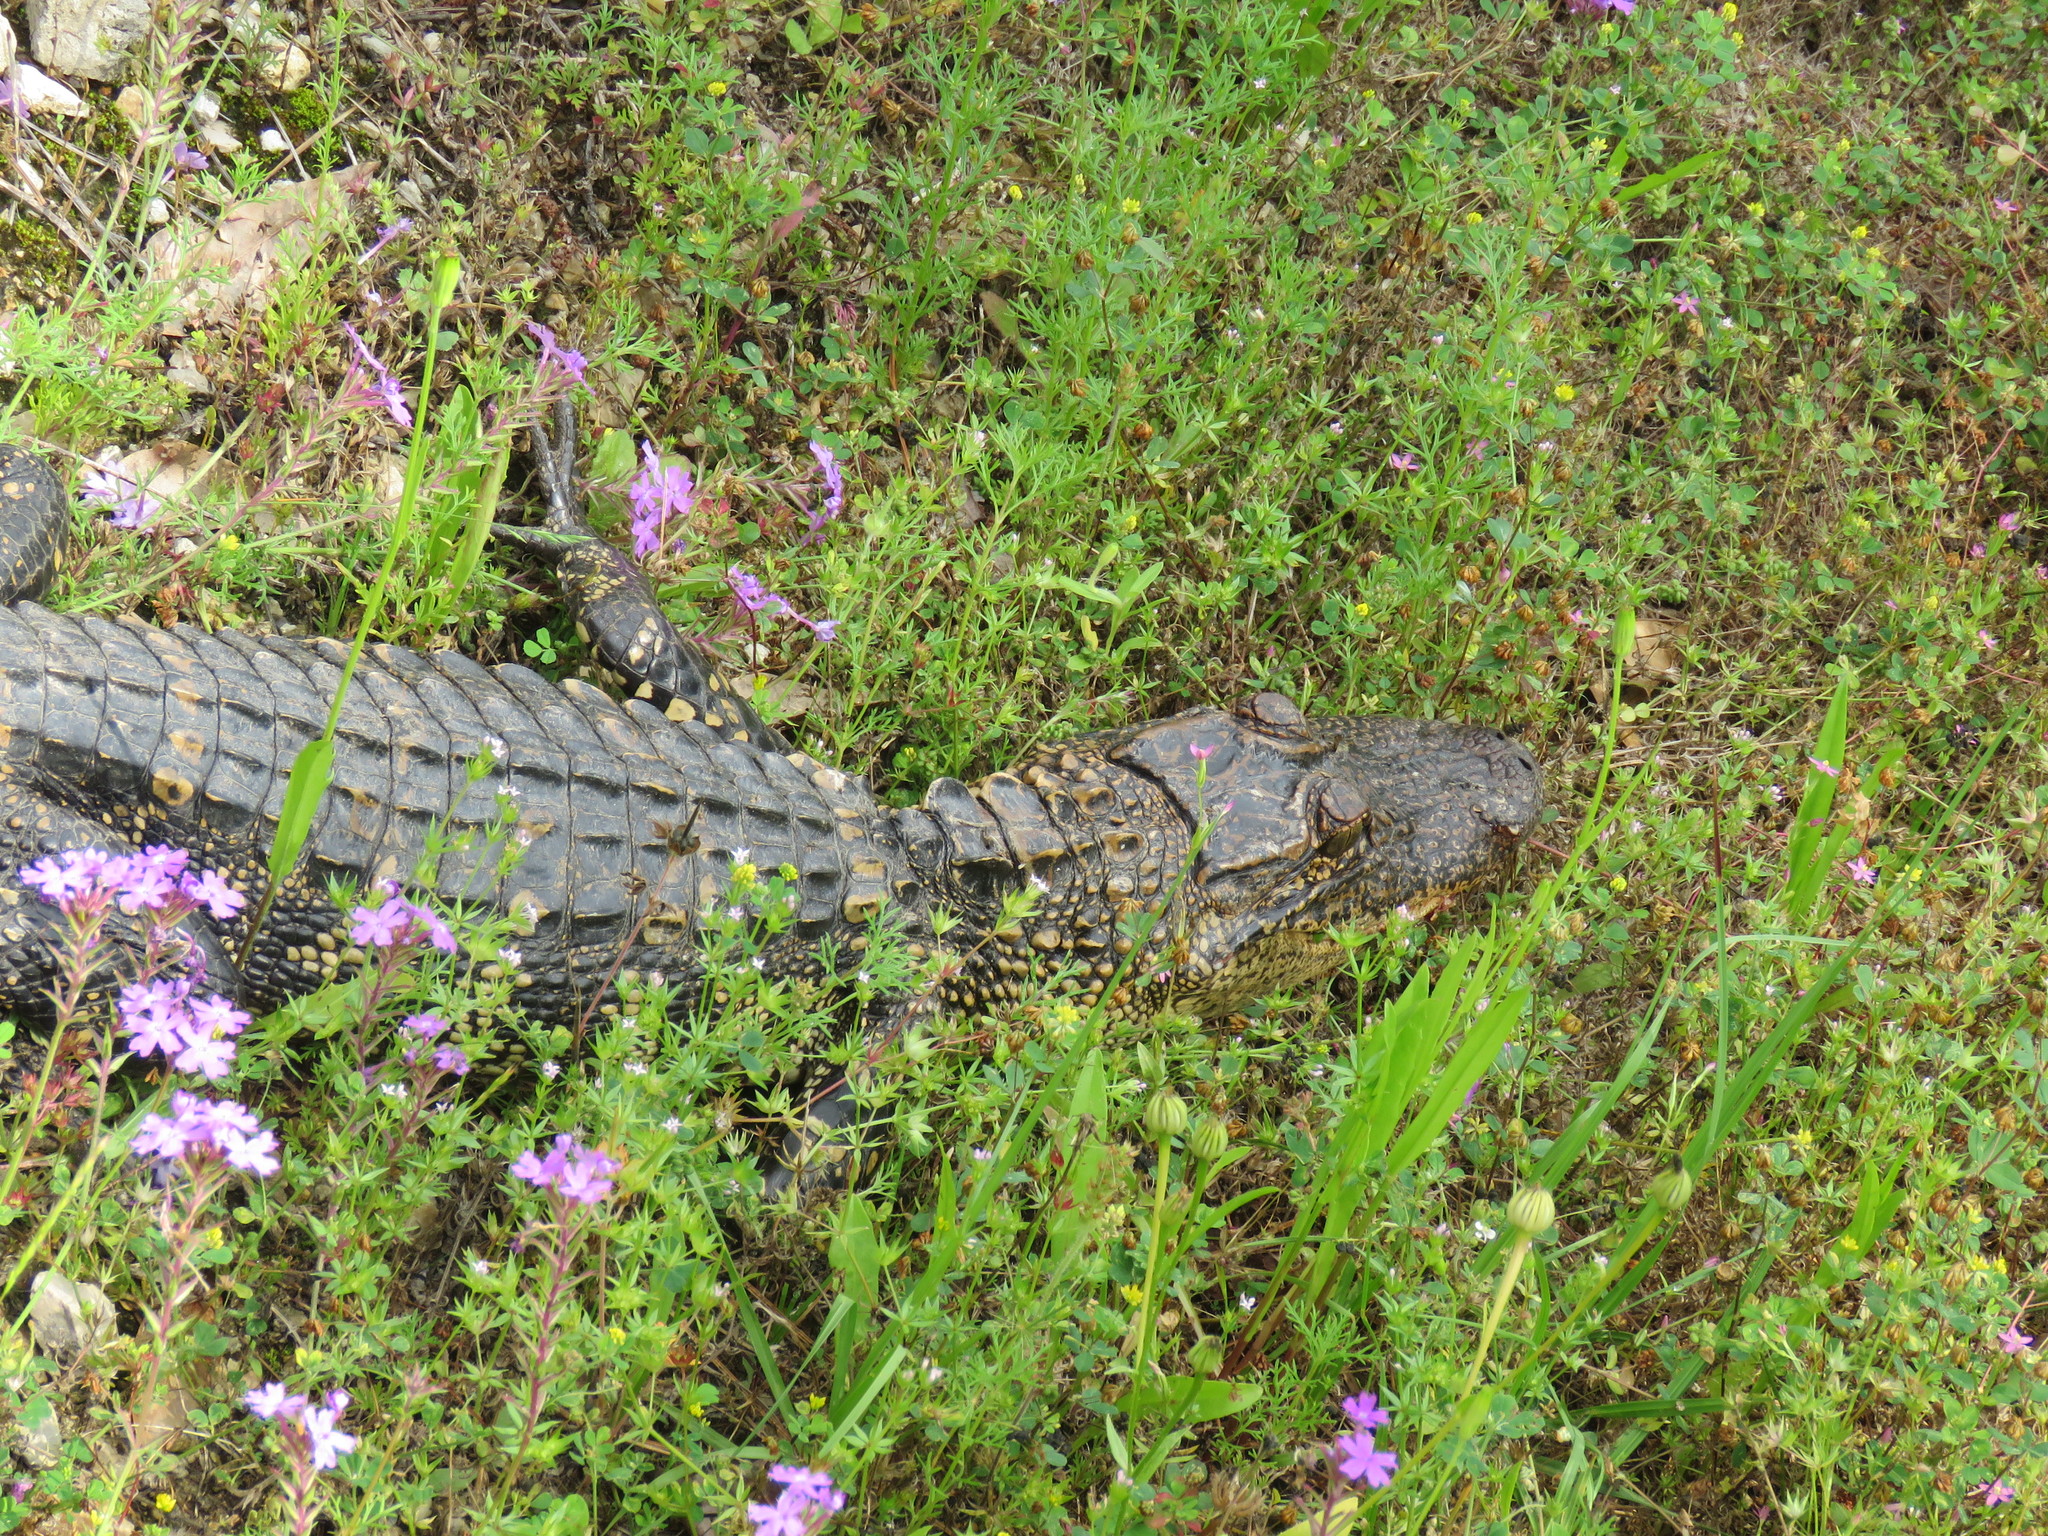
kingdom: Animalia
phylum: Chordata
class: Crocodylia
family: Alligatoridae
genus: Alligator
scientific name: Alligator mississippiensis
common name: American alligator
